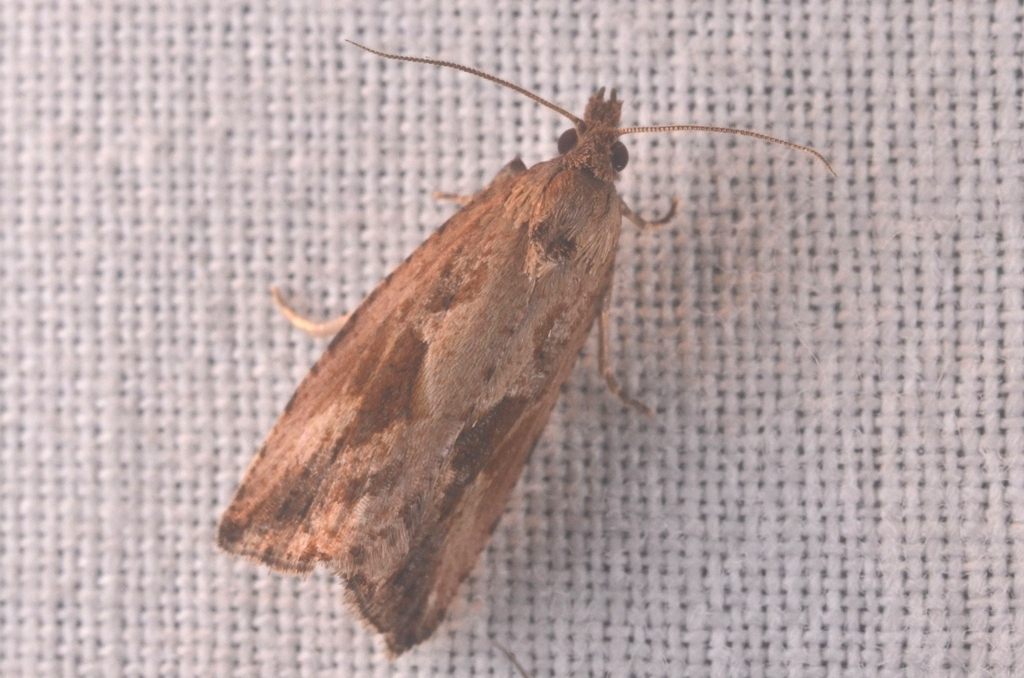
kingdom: Animalia
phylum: Arthropoda
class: Insecta
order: Lepidoptera
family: Tortricidae
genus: Endothenia
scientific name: Endothenia quadrimaculana
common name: Tortricid moth
